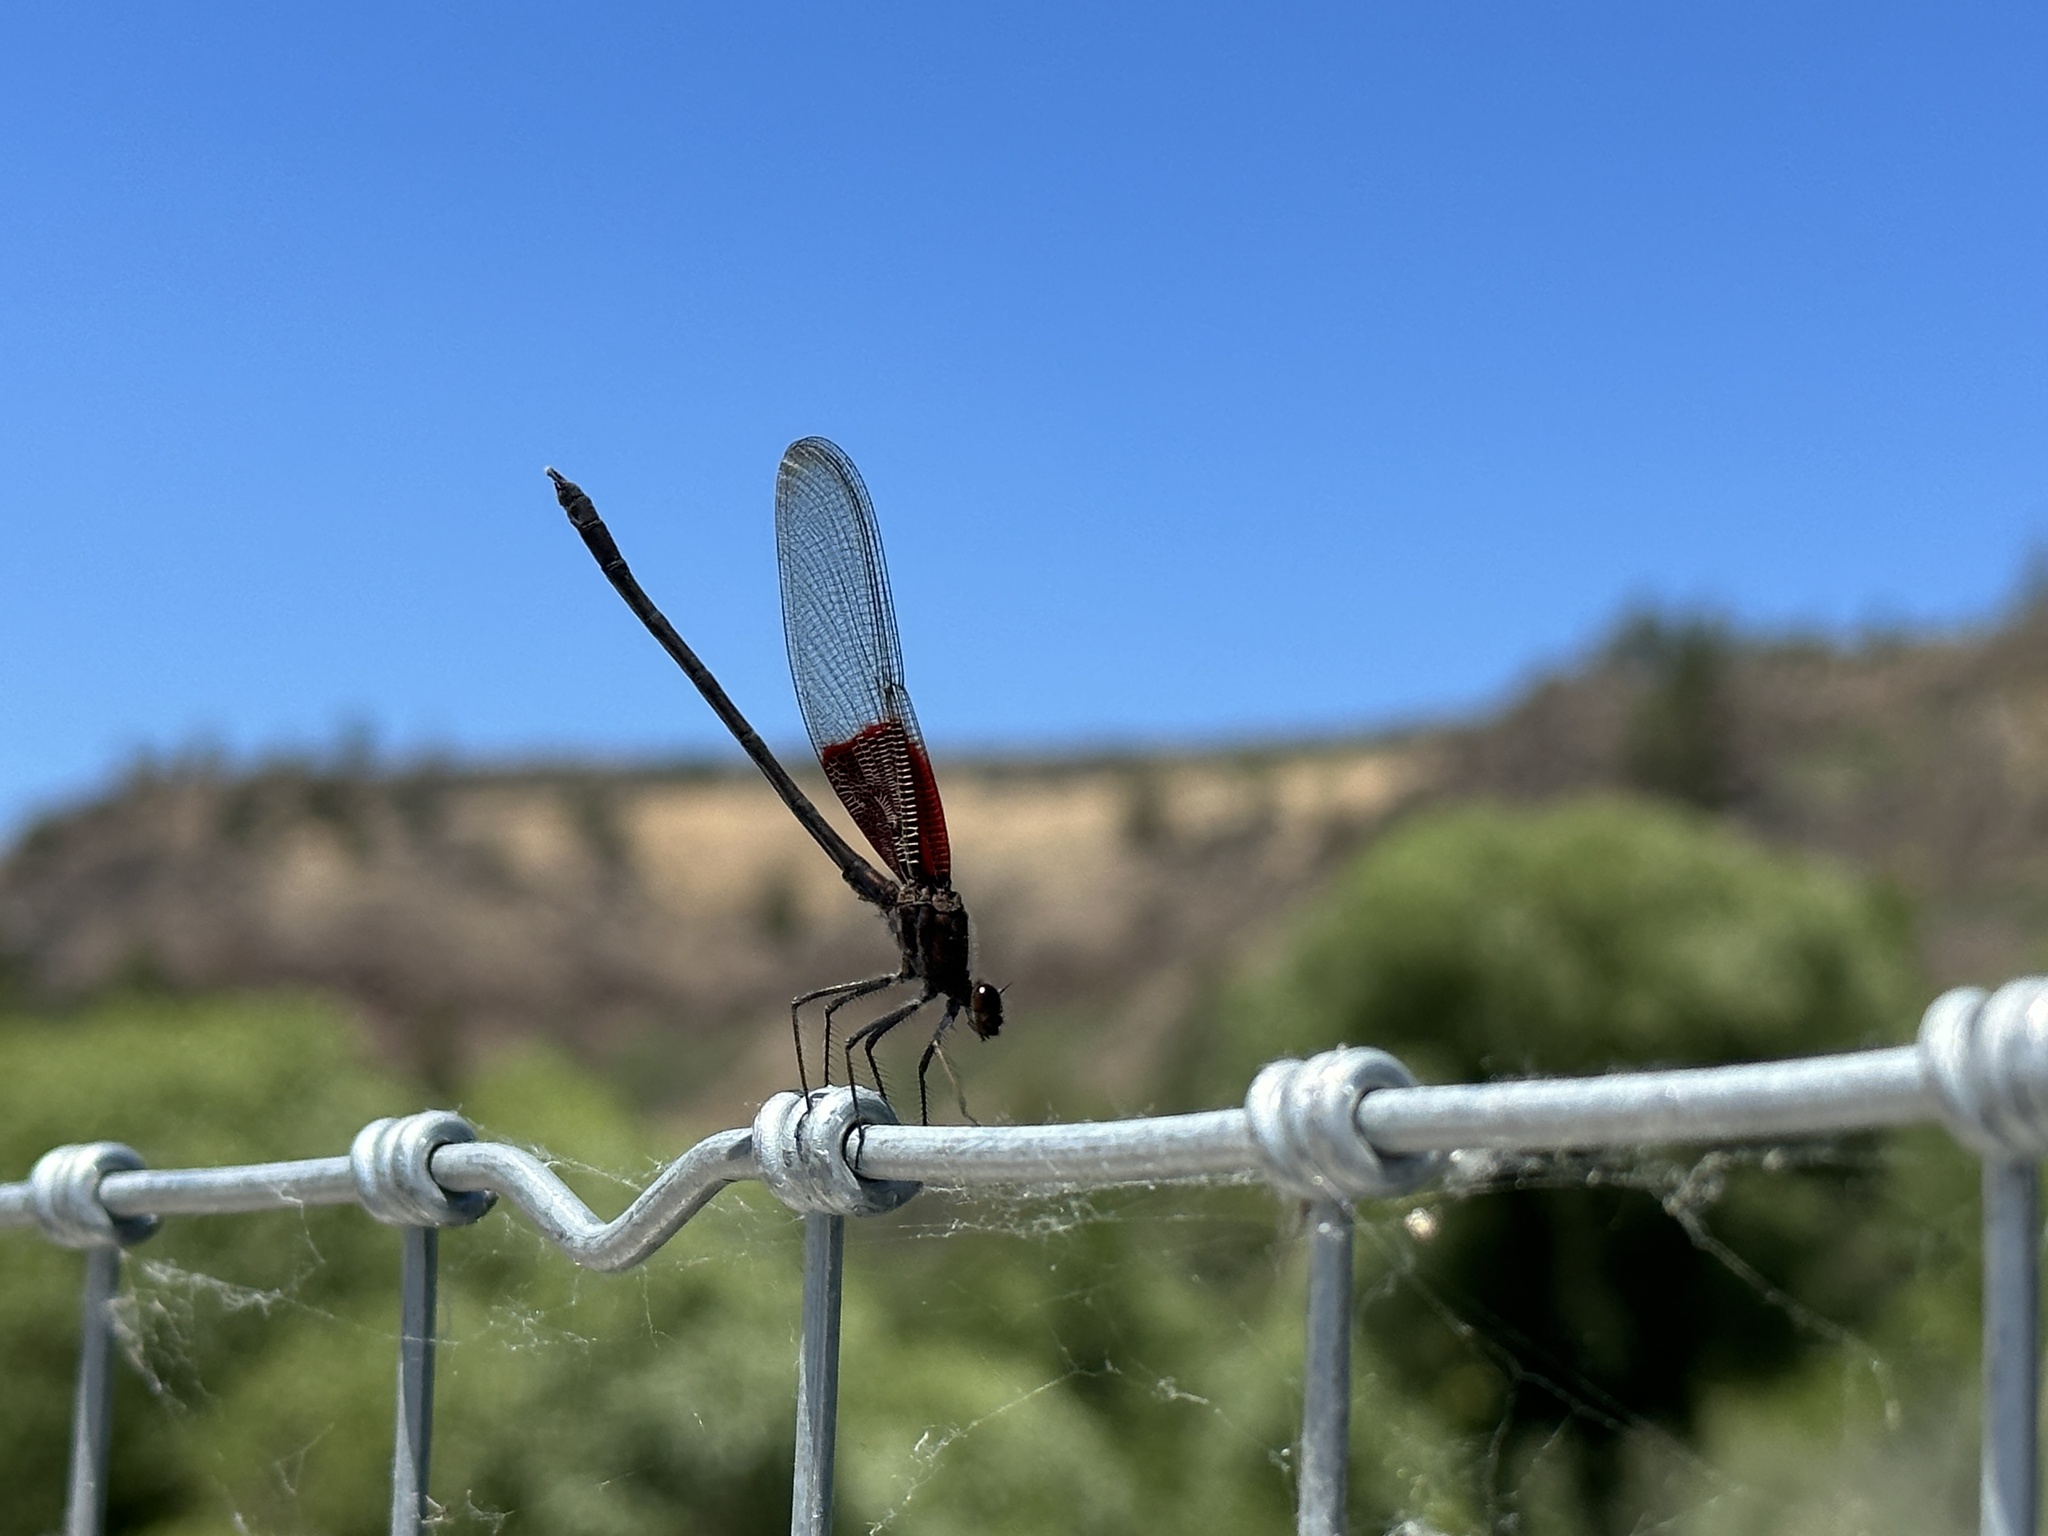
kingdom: Animalia
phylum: Arthropoda
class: Insecta
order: Odonata
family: Calopterygidae
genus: Hetaerina
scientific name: Hetaerina americana
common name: American rubyspot
